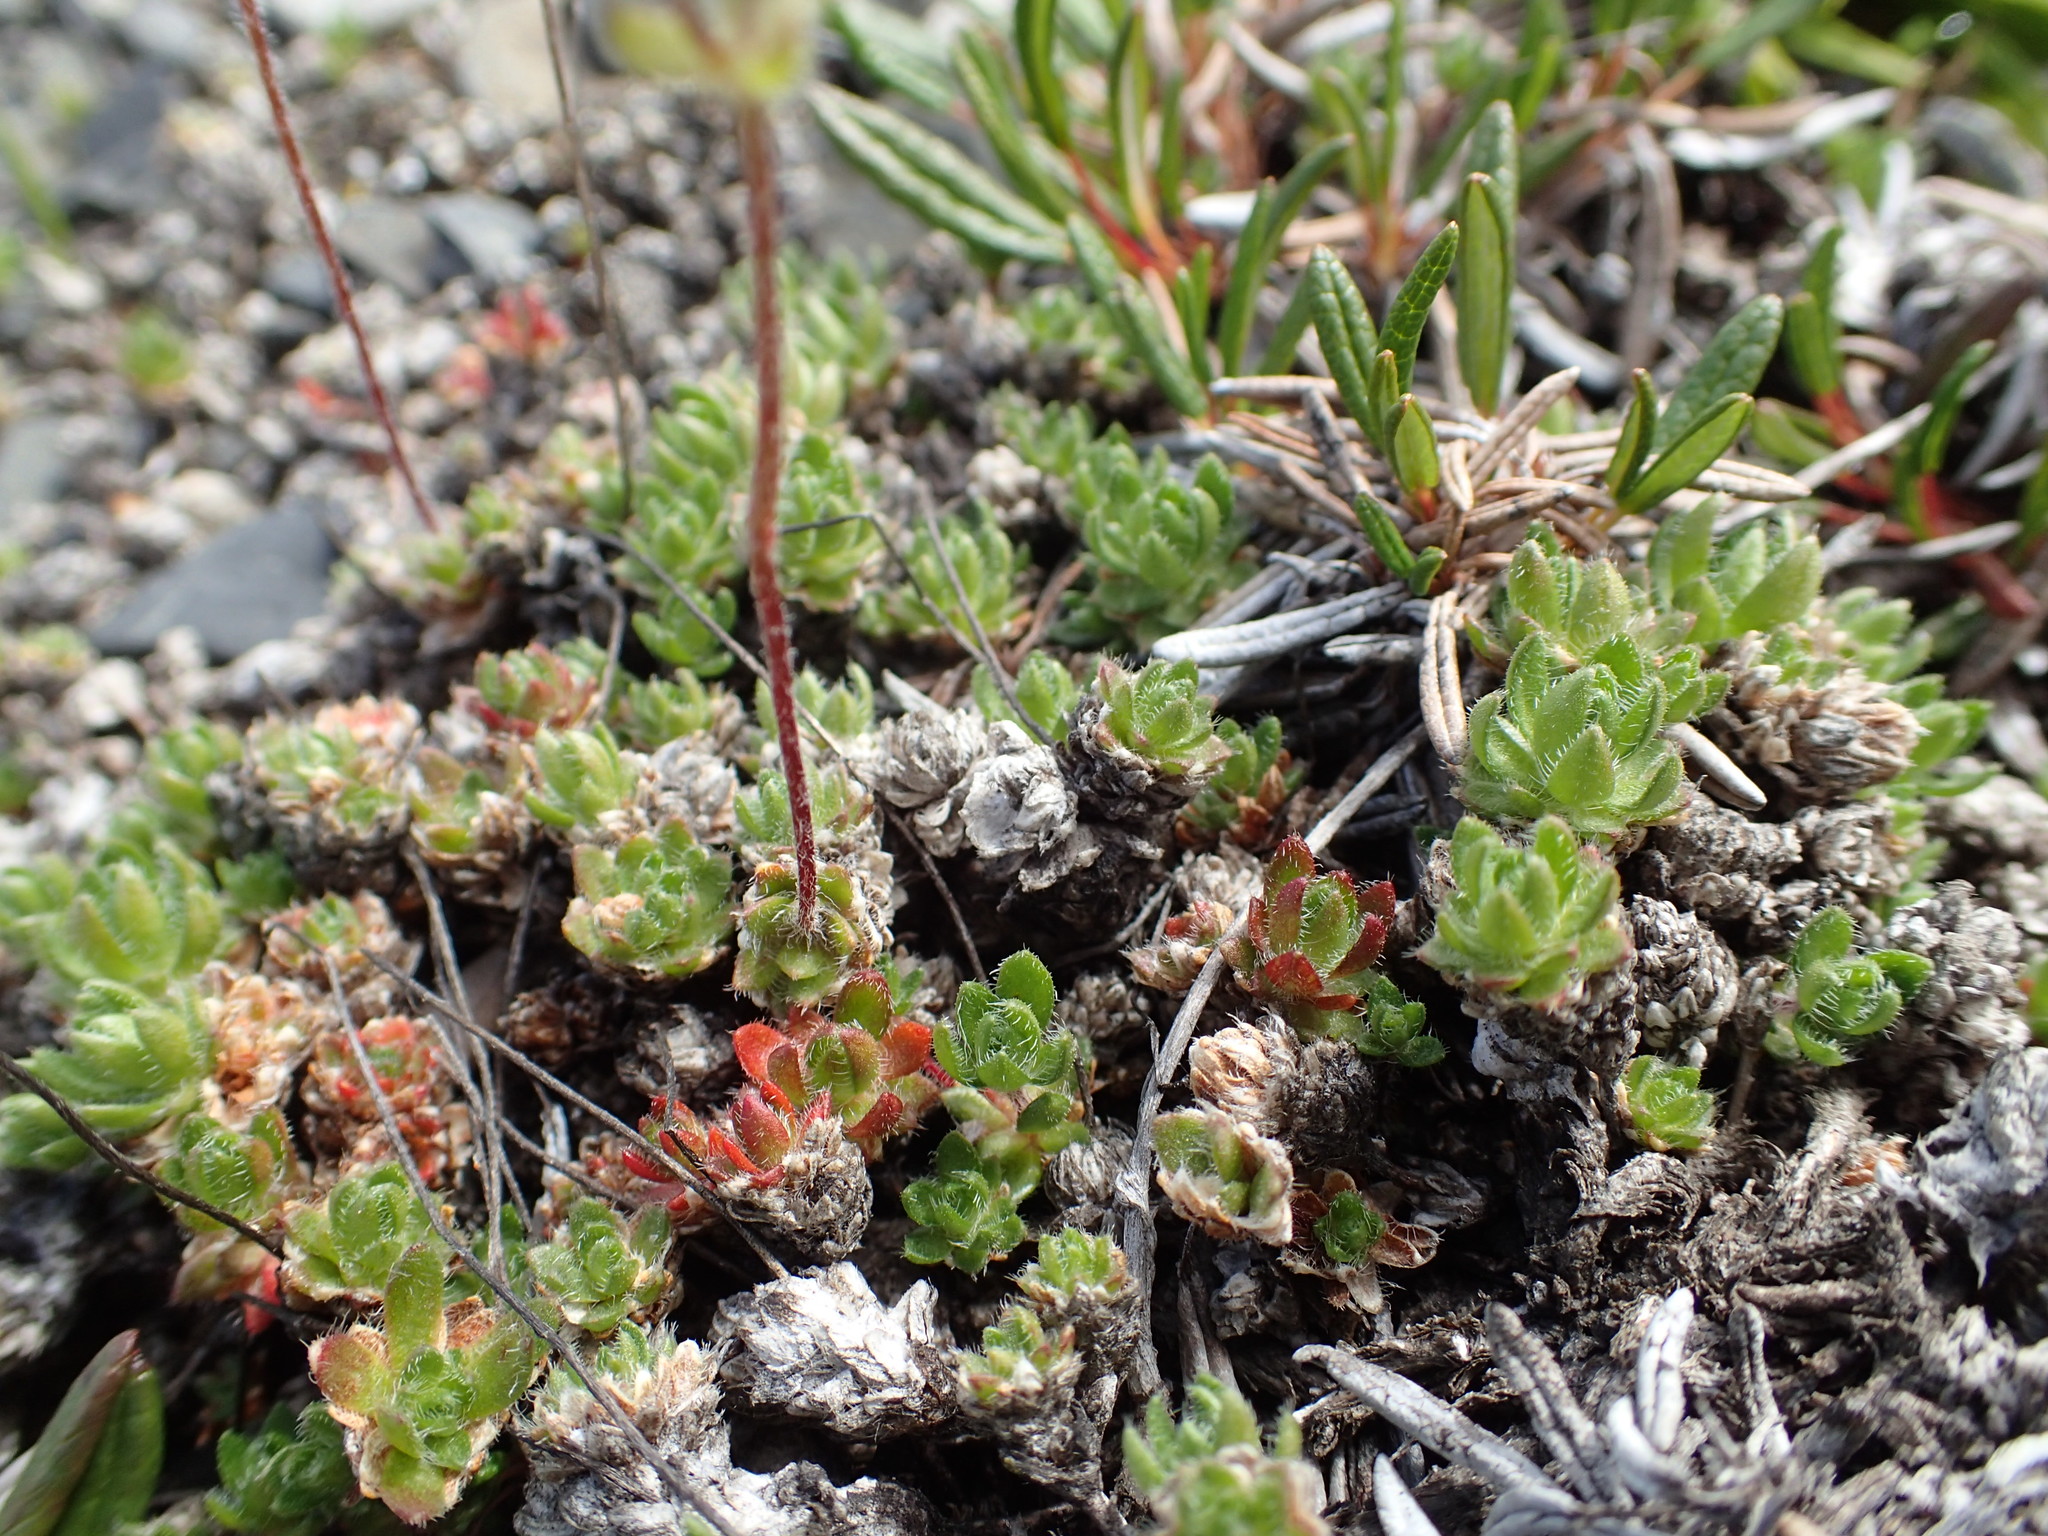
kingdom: Plantae
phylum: Tracheophyta
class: Magnoliopsida
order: Ericales
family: Primulaceae
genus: Androsace
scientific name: Androsace chamaejasme
